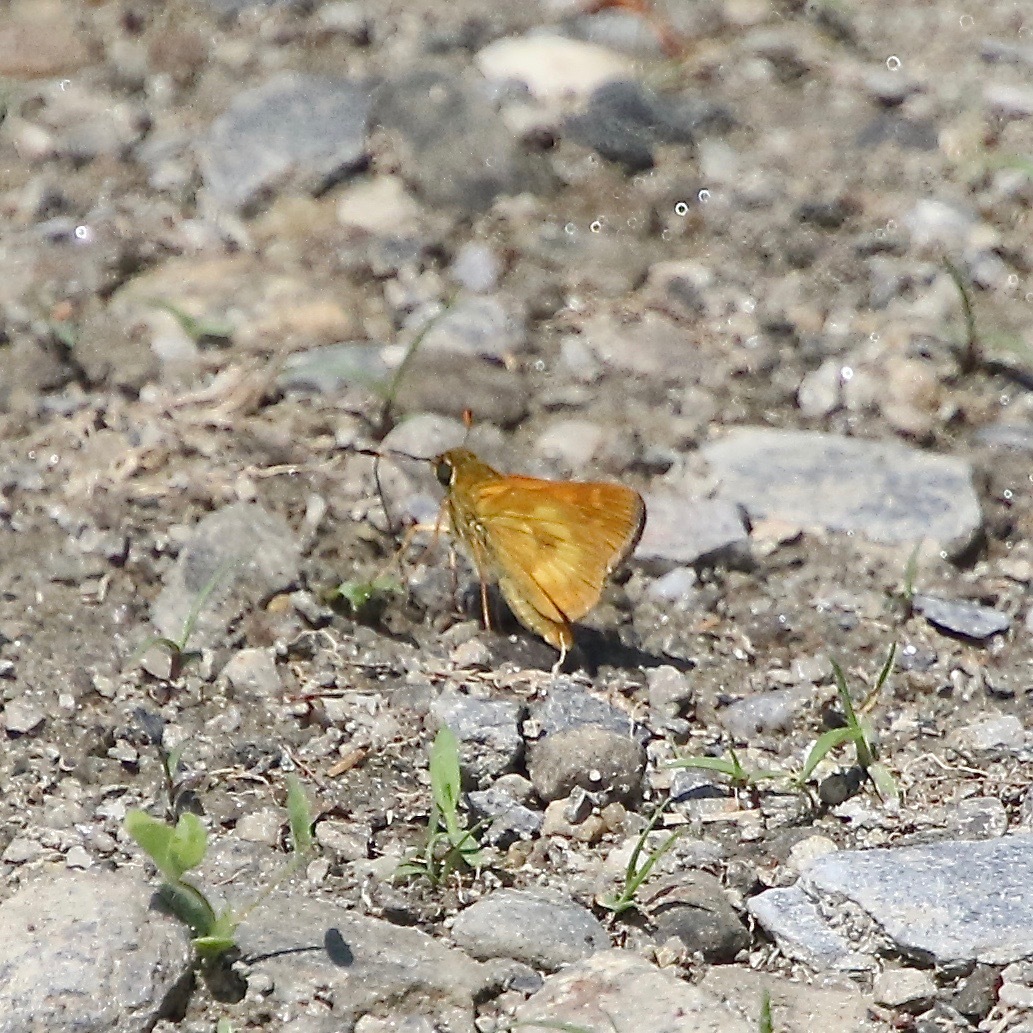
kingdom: Animalia
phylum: Arthropoda
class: Insecta
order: Lepidoptera
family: Hesperiidae
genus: Polites
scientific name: Polites mystic
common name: Long dash
